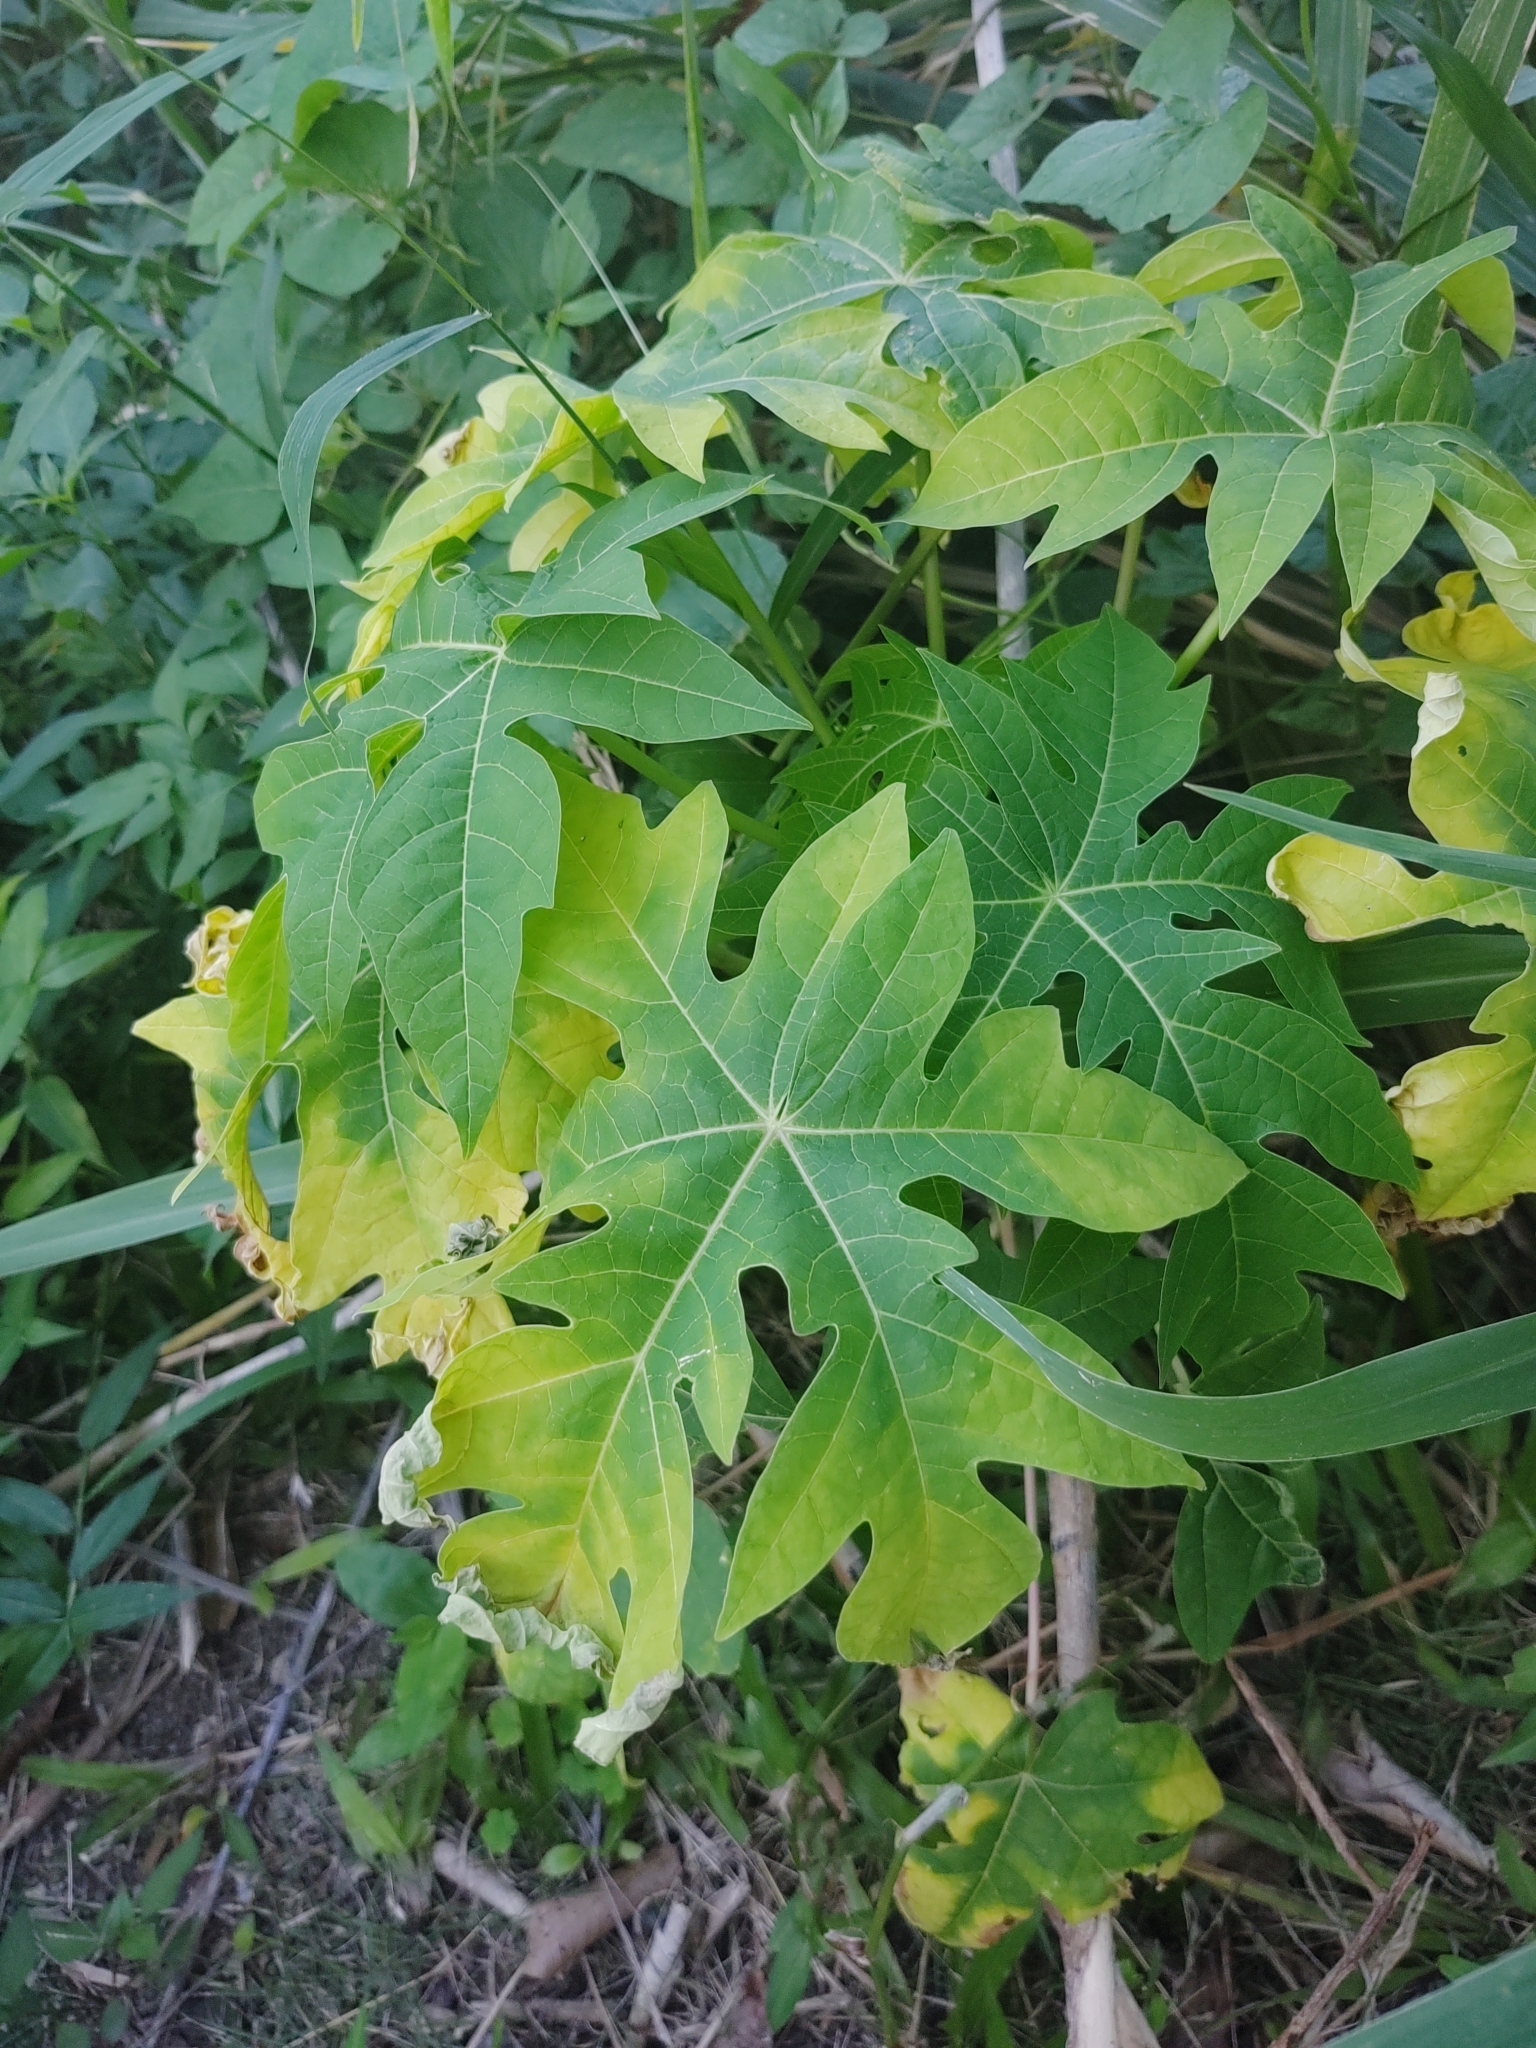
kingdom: Plantae
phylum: Tracheophyta
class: Magnoliopsida
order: Brassicales
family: Caricaceae
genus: Carica
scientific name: Carica papaya
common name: Papaya
